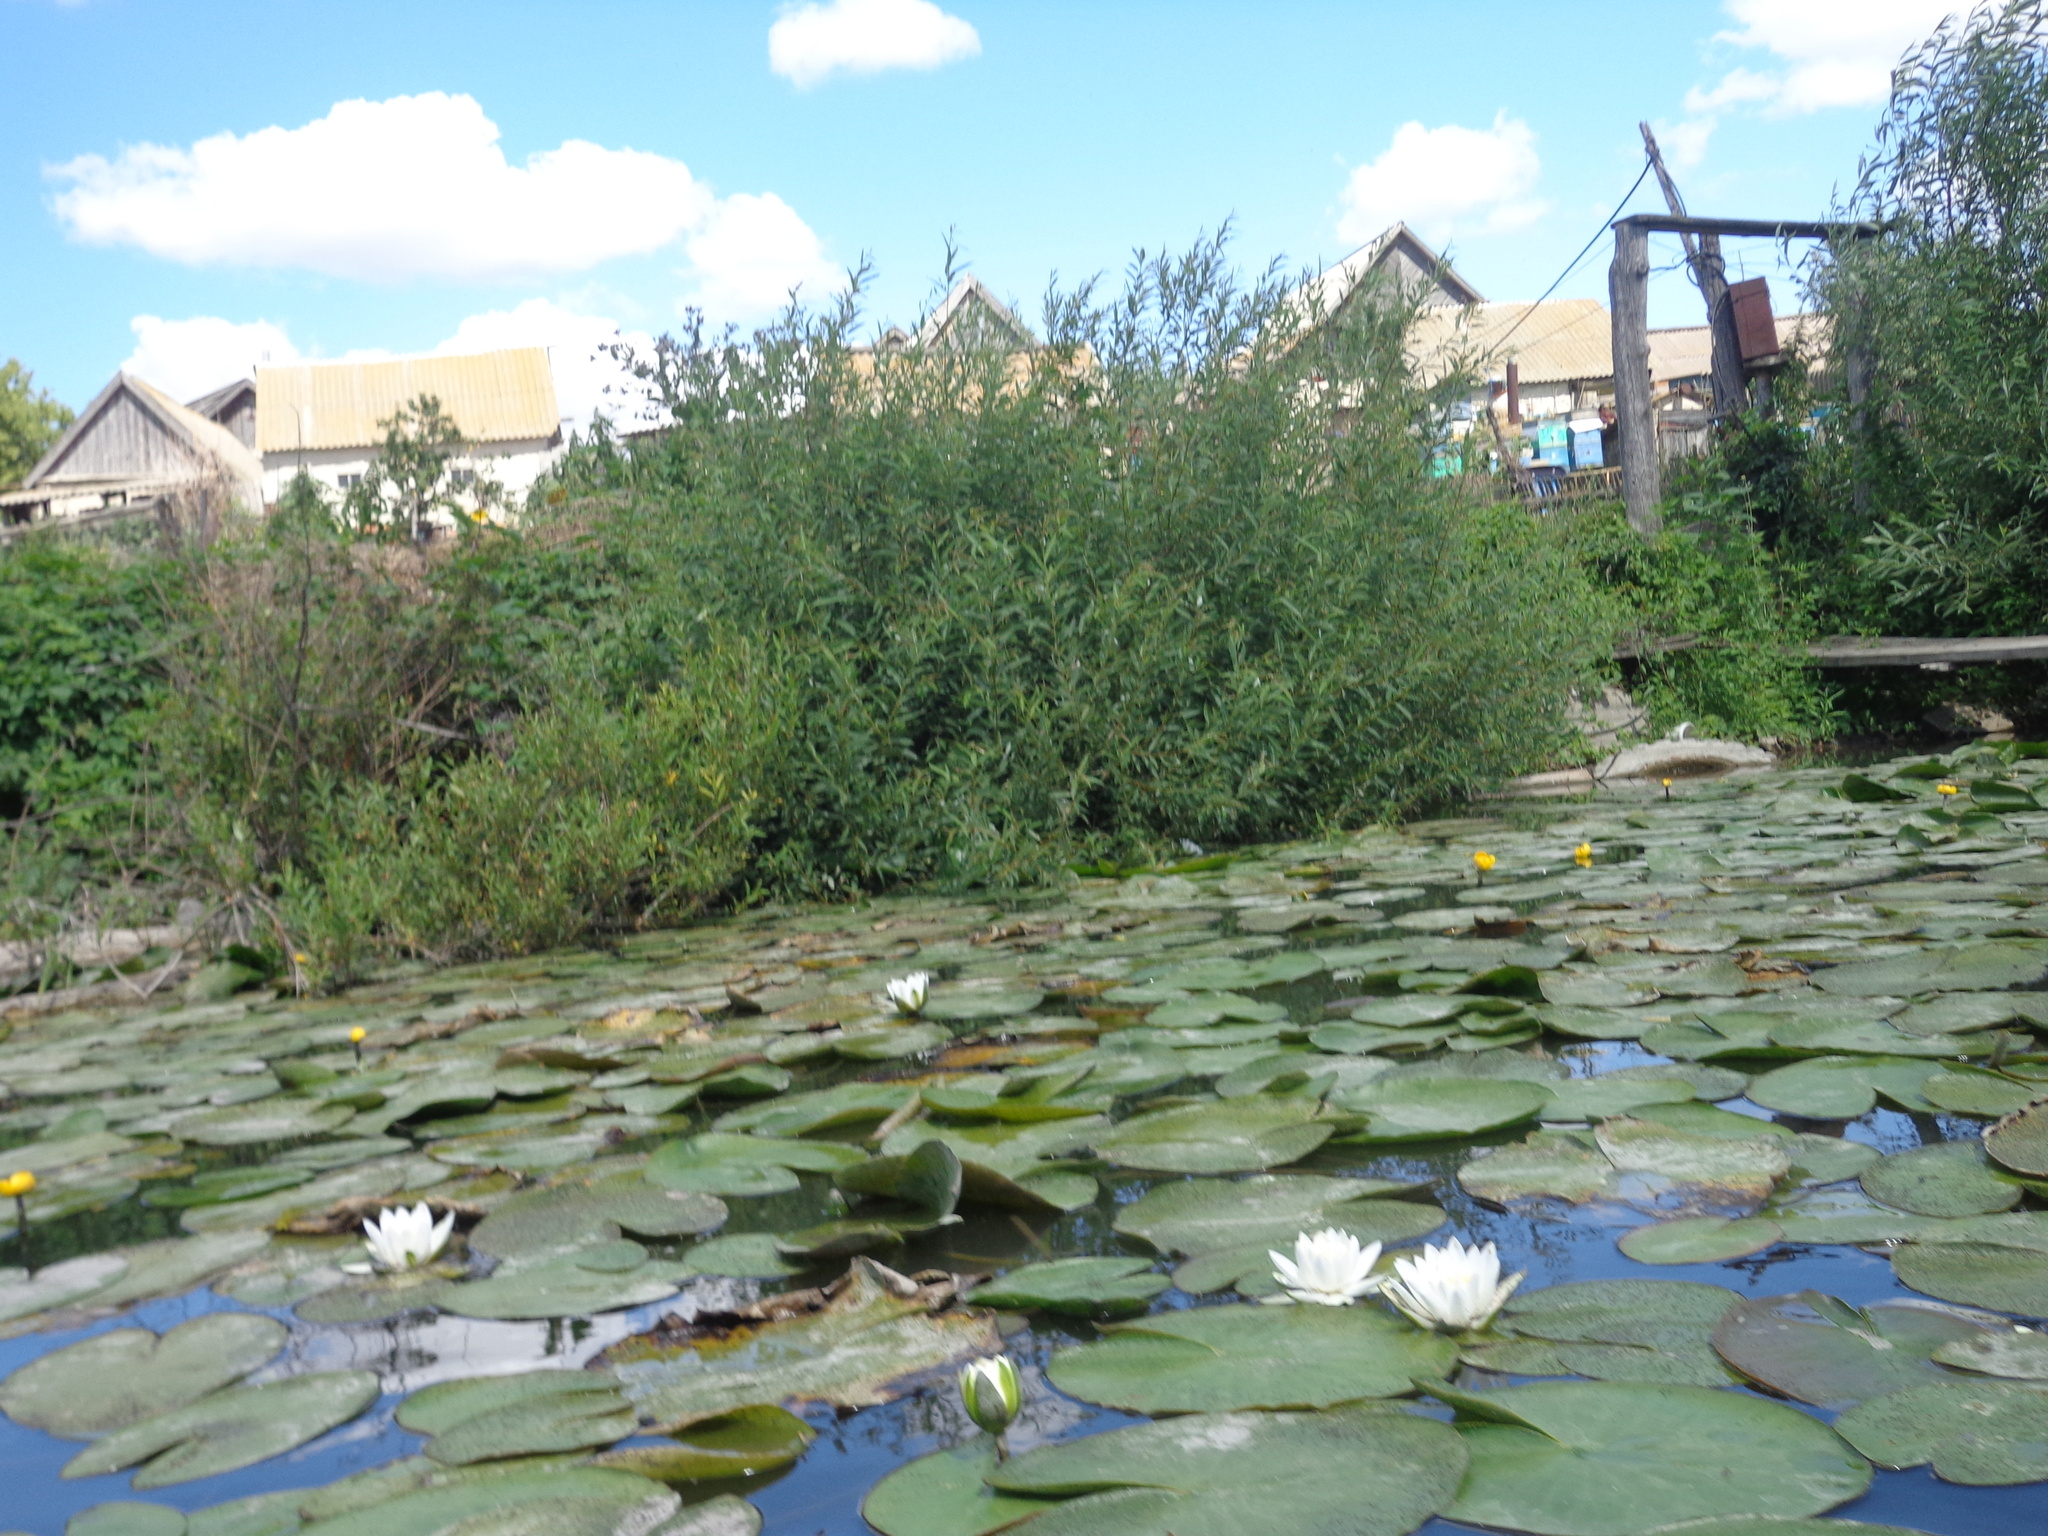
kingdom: Plantae
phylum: Tracheophyta
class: Magnoliopsida
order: Nymphaeales
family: Nymphaeaceae
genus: Nymphaea
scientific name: Nymphaea alba
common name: White water-lily
